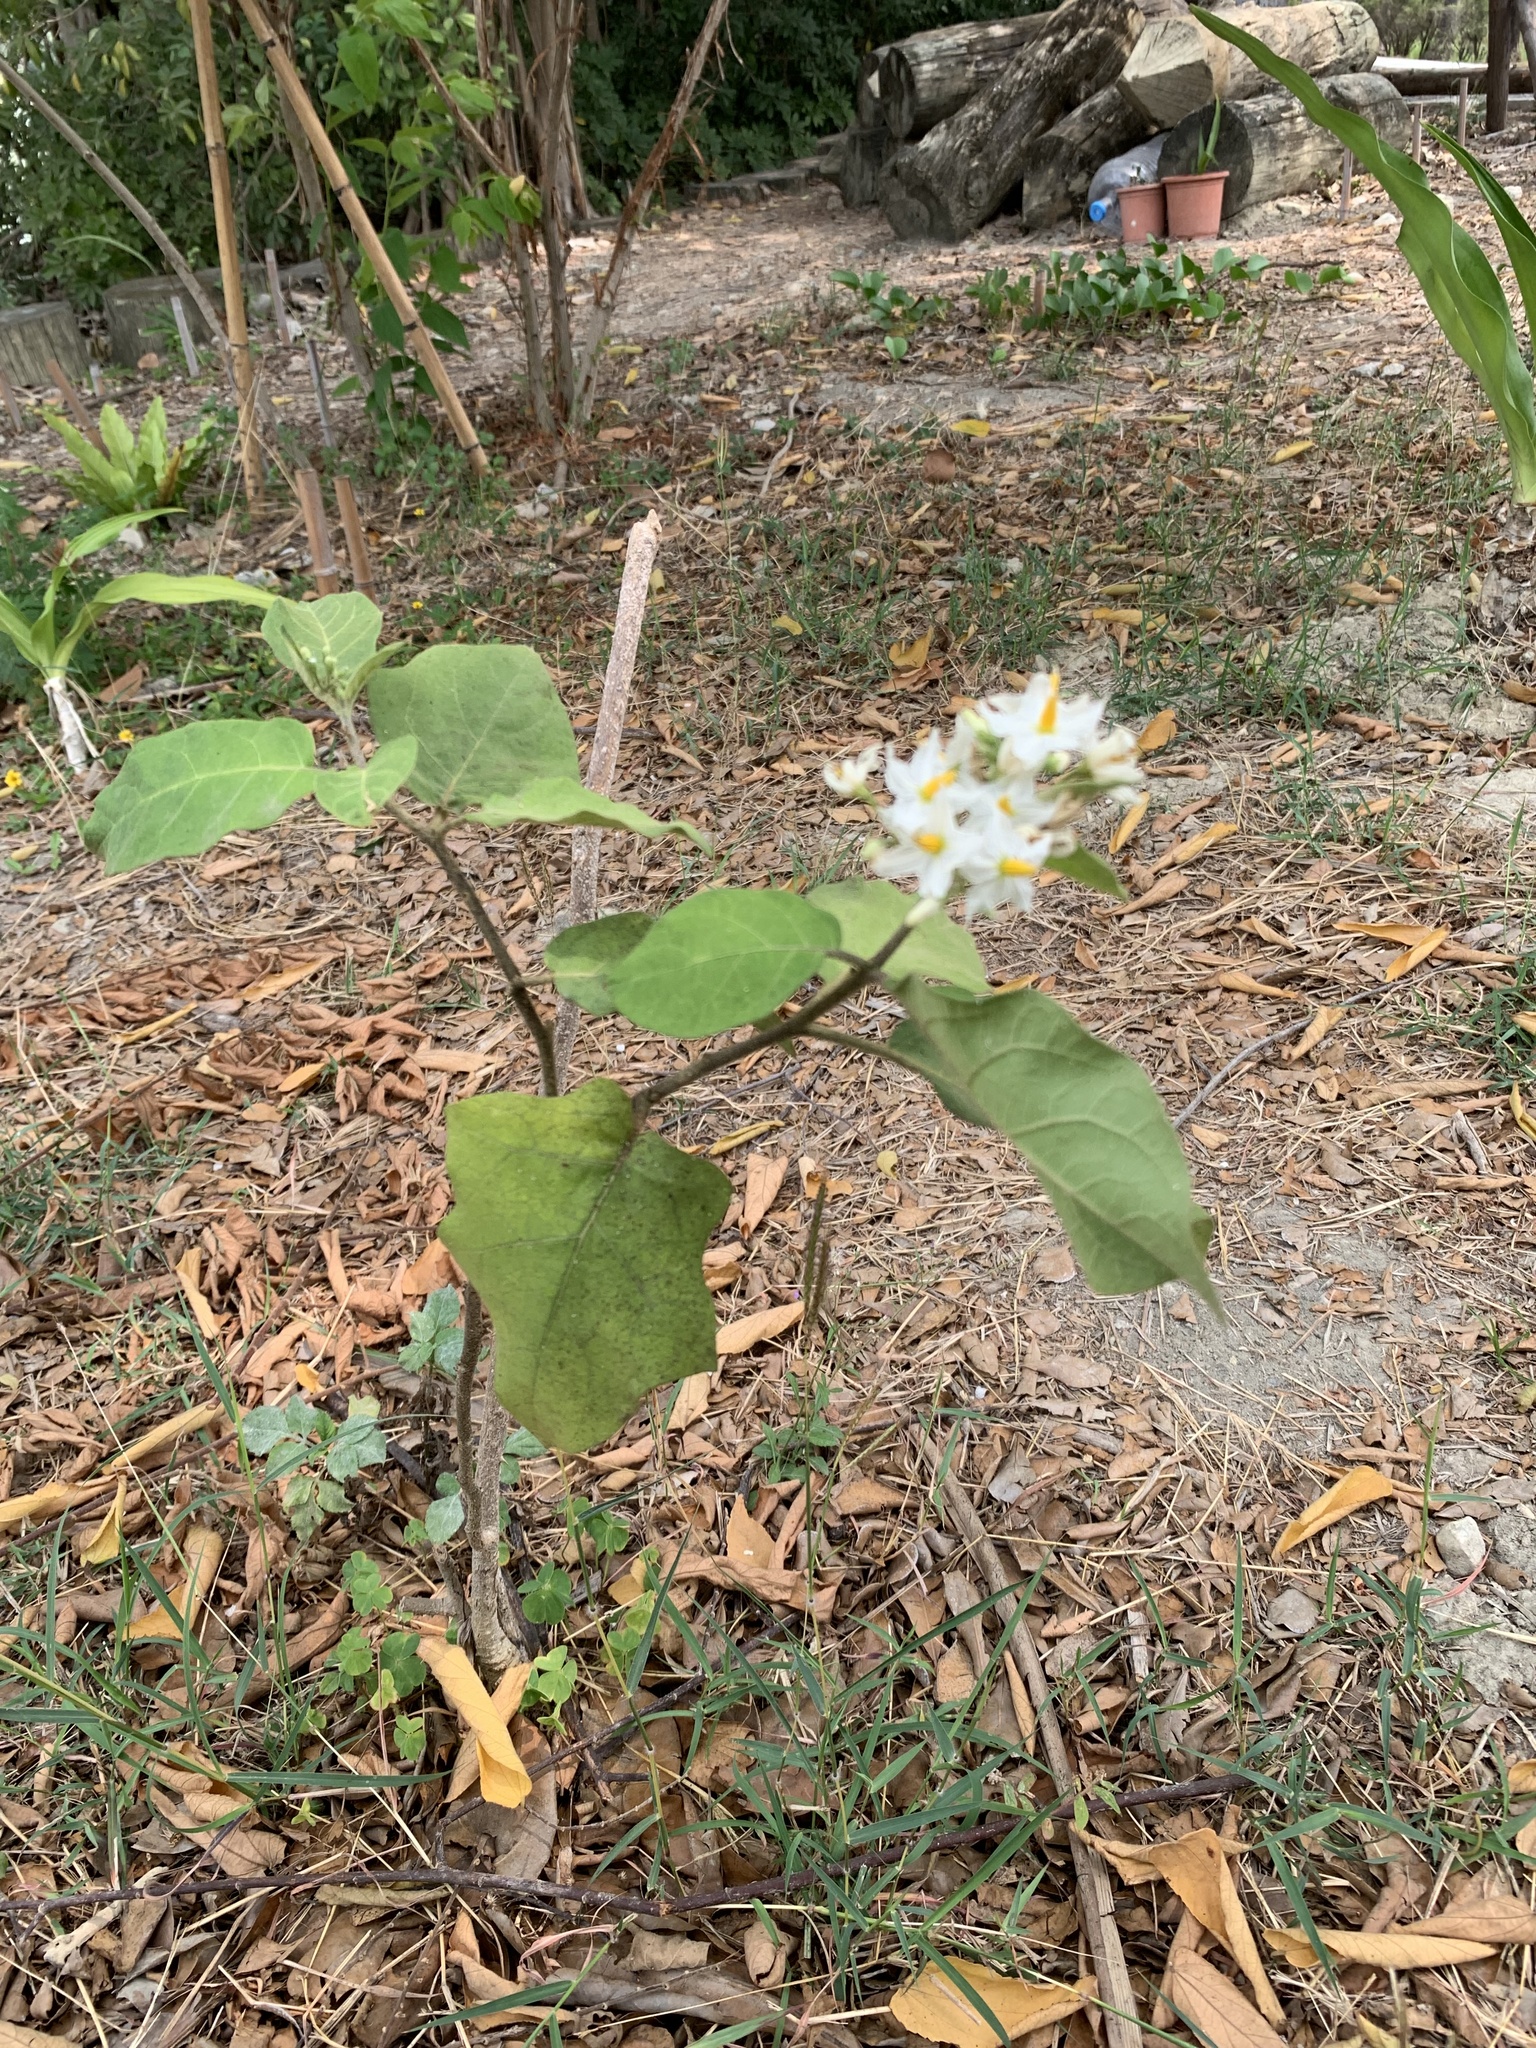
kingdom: Plantae
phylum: Tracheophyta
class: Magnoliopsida
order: Solanales
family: Solanaceae
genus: Solanum
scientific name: Solanum torvum
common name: Turkey berry
